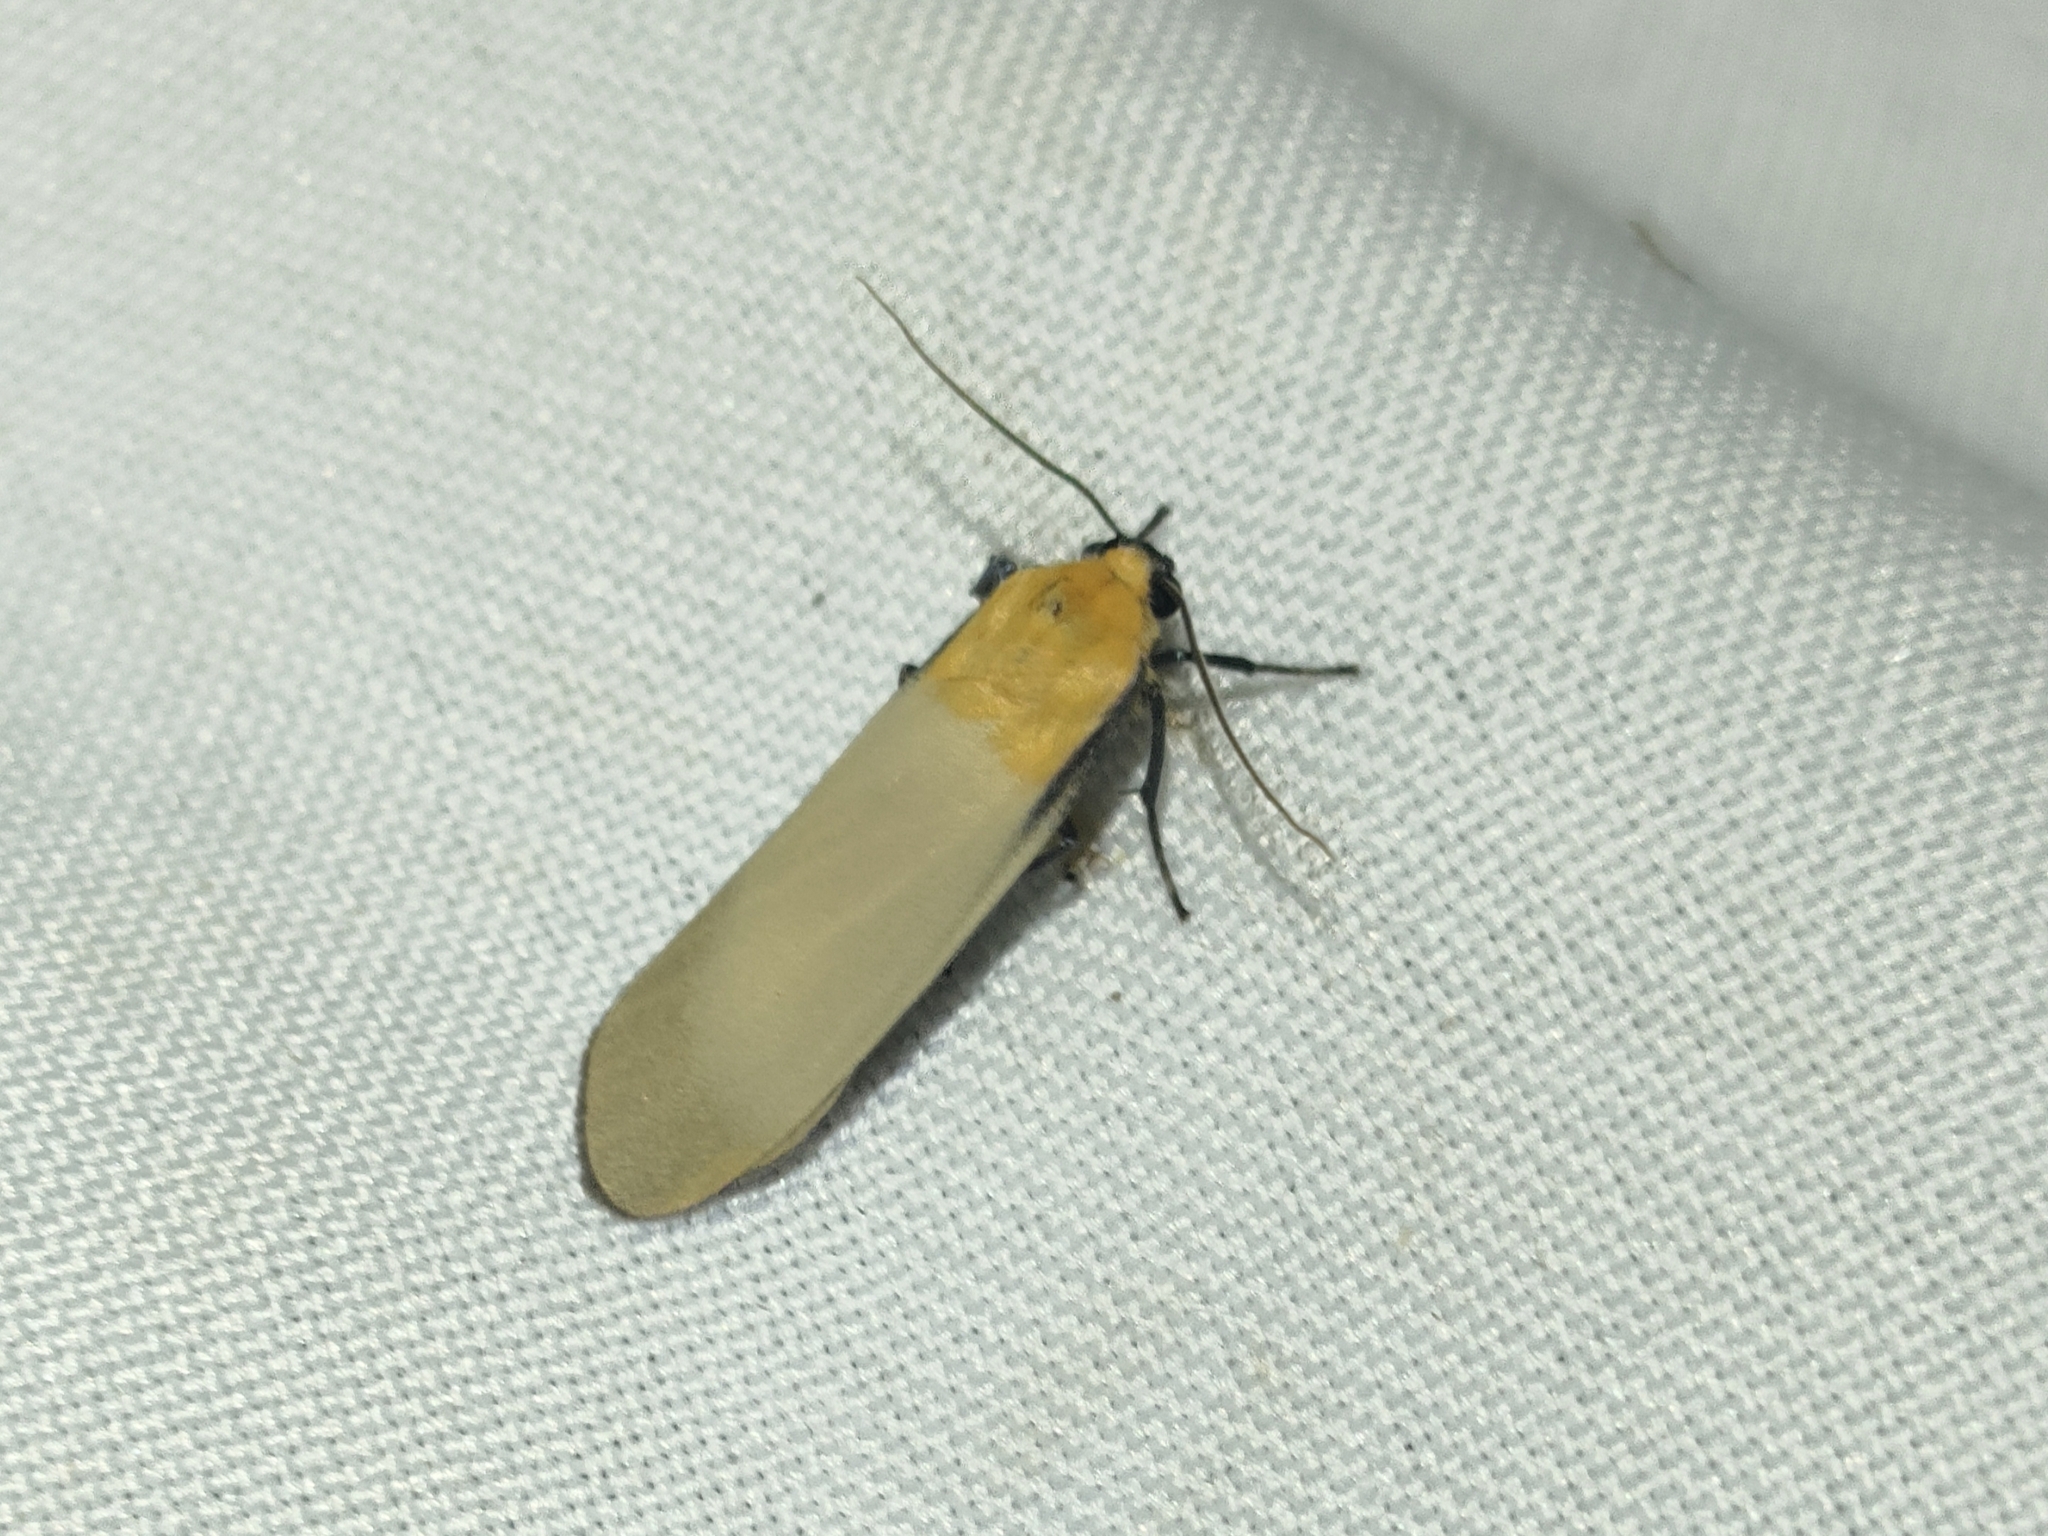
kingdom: Animalia
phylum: Arthropoda
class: Insecta
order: Lepidoptera
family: Erebidae
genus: Lithosia
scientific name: Lithosia quadra
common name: Four-spotted footman
